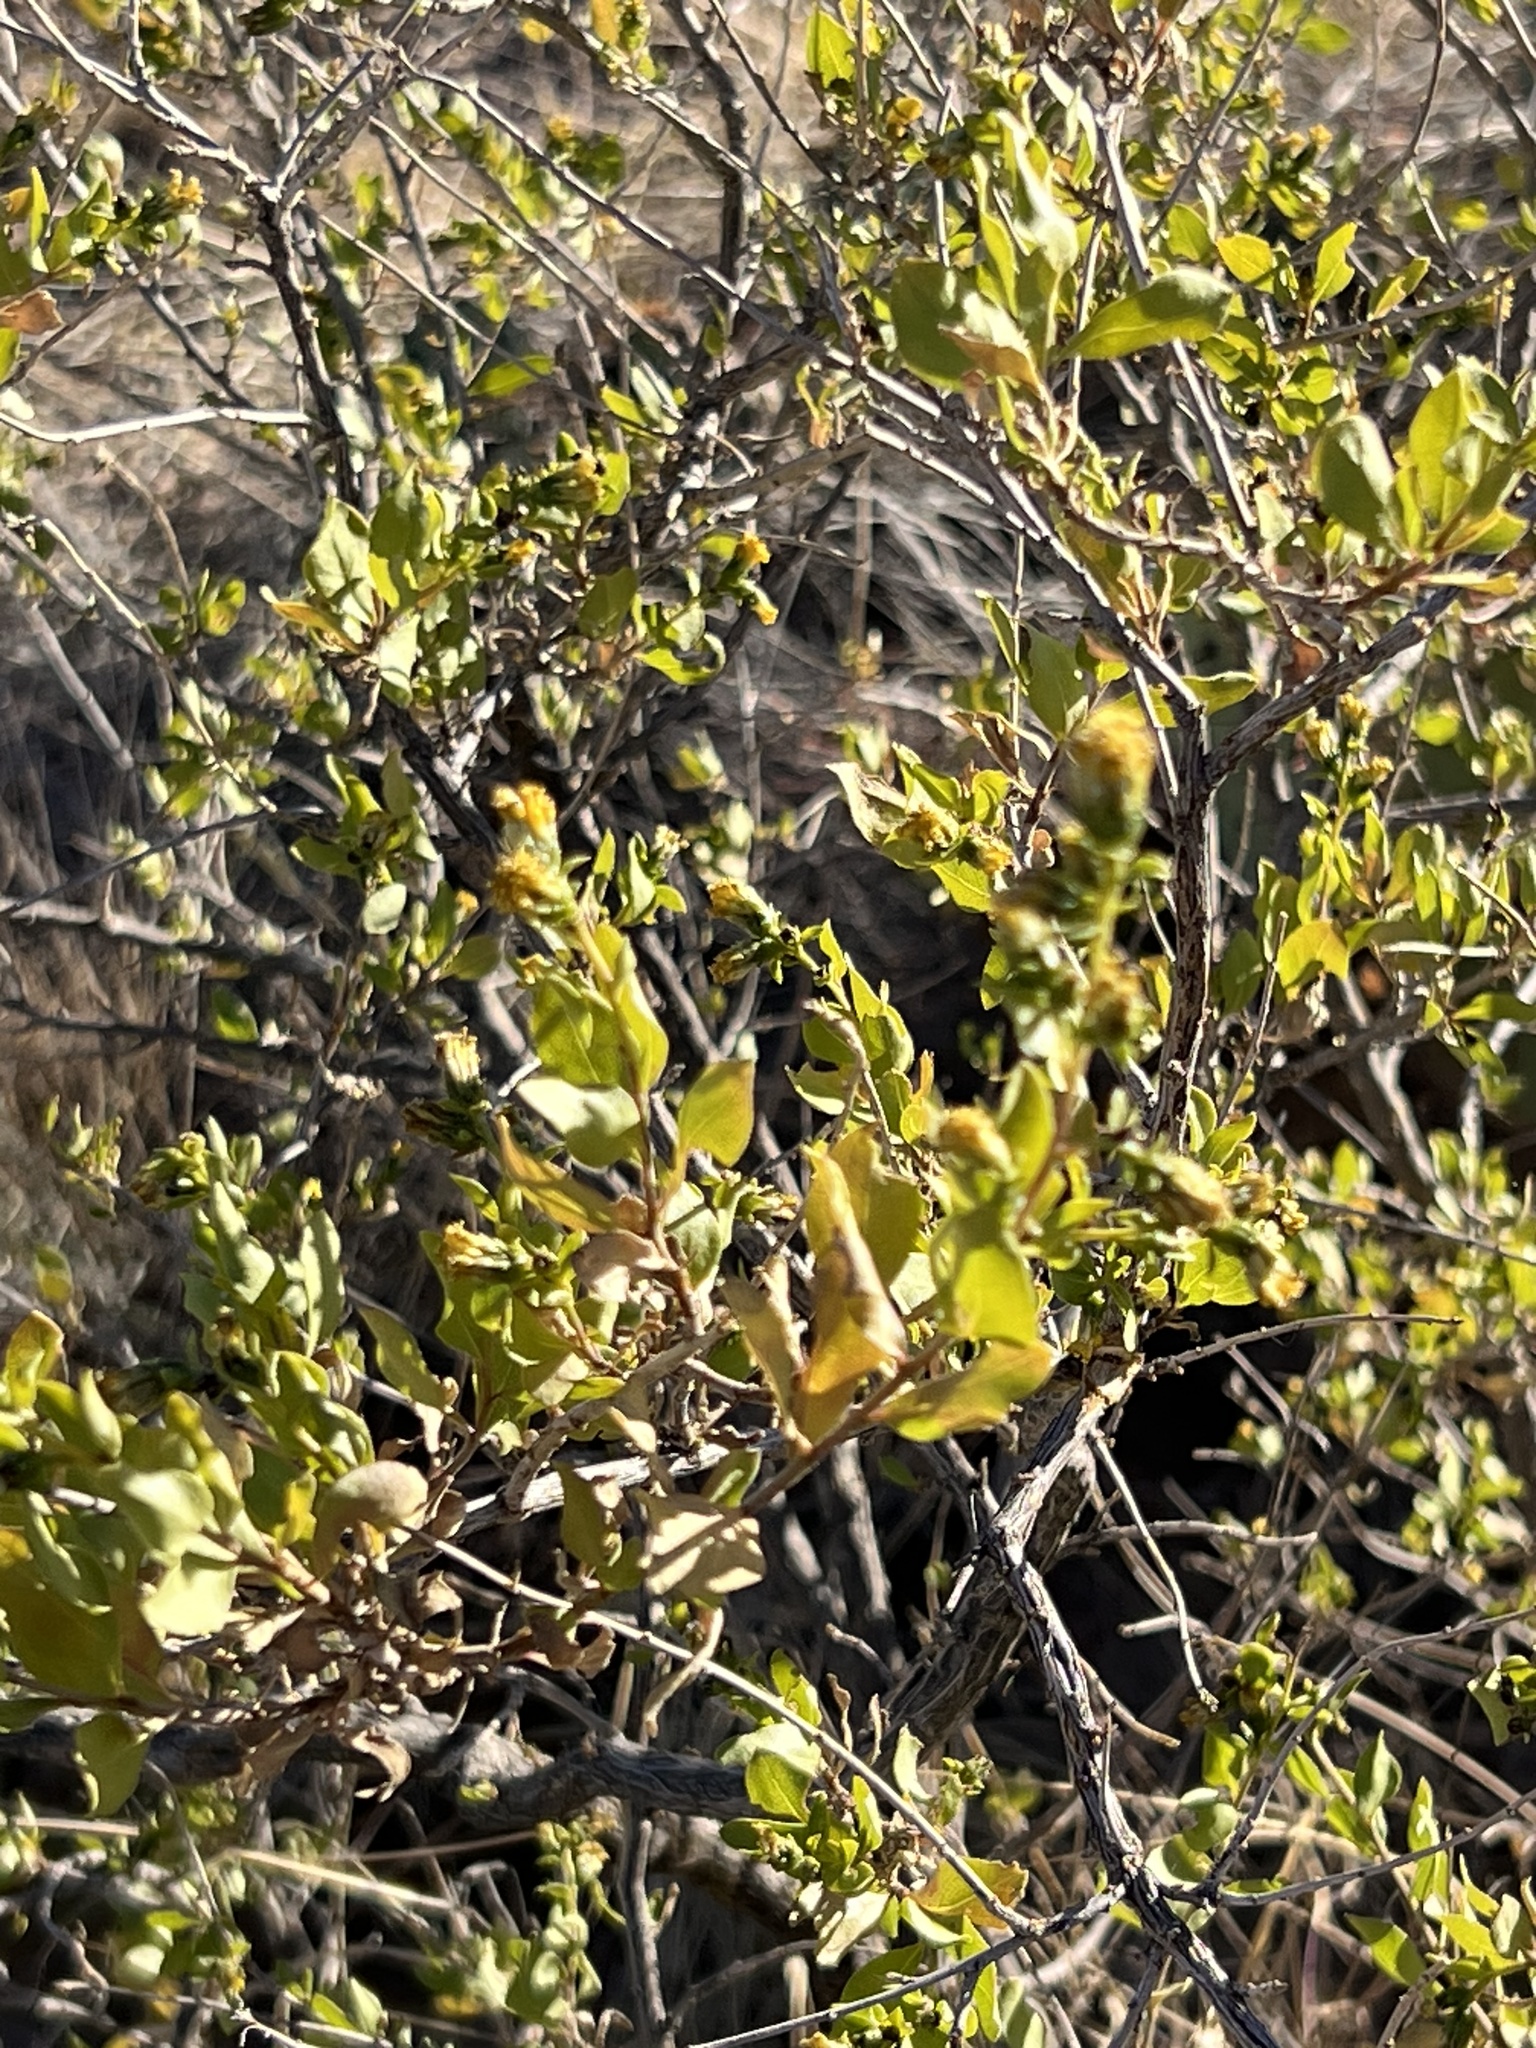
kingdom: Plantae
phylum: Tracheophyta
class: Magnoliopsida
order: Asterales
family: Asteraceae
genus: Flourensia
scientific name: Flourensia cernua
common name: Varnishbush
